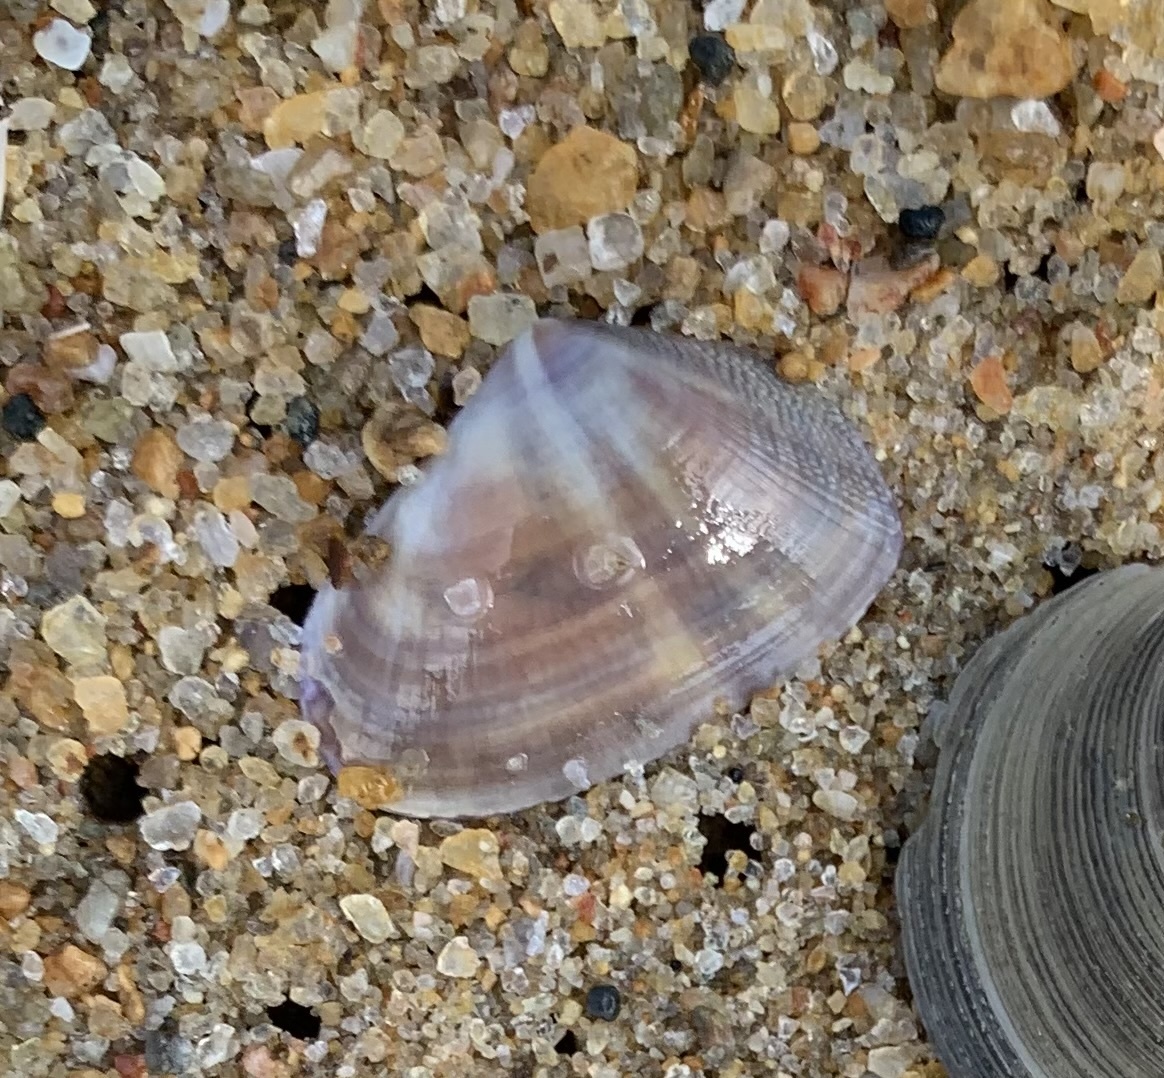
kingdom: Animalia
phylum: Mollusca
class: Bivalvia
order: Cardiida
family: Donacidae
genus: Latona
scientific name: Latona cuneata
